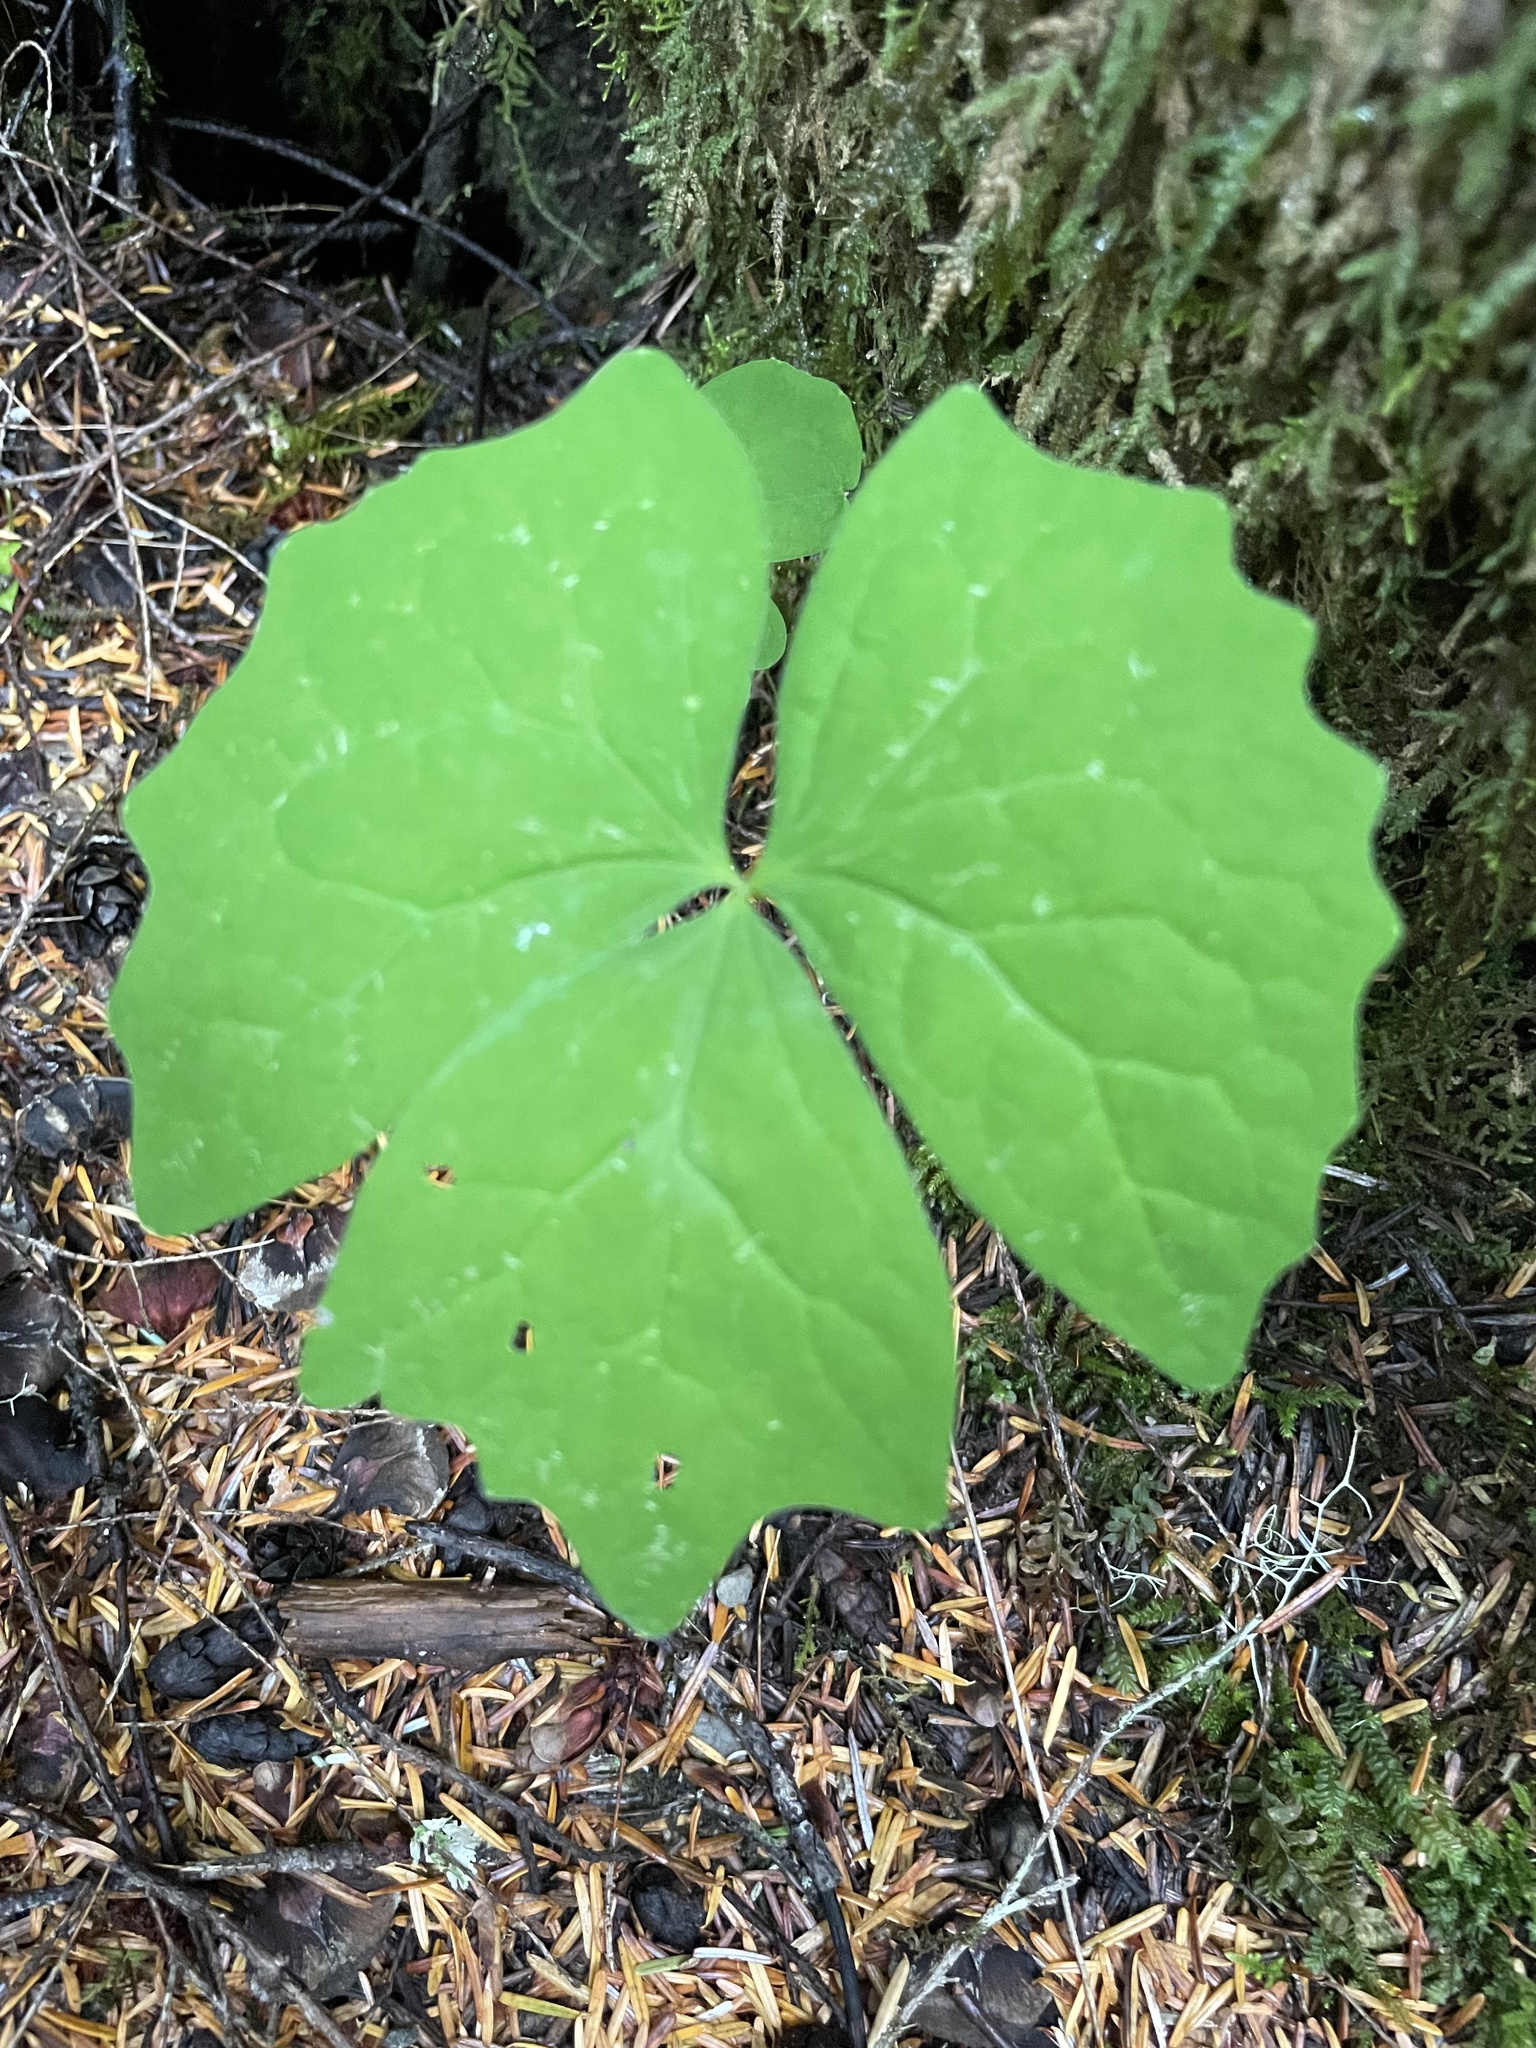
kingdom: Plantae
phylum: Tracheophyta
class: Magnoliopsida
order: Ranunculales
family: Berberidaceae
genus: Achlys
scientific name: Achlys triphylla
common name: Vanilla-leaf
